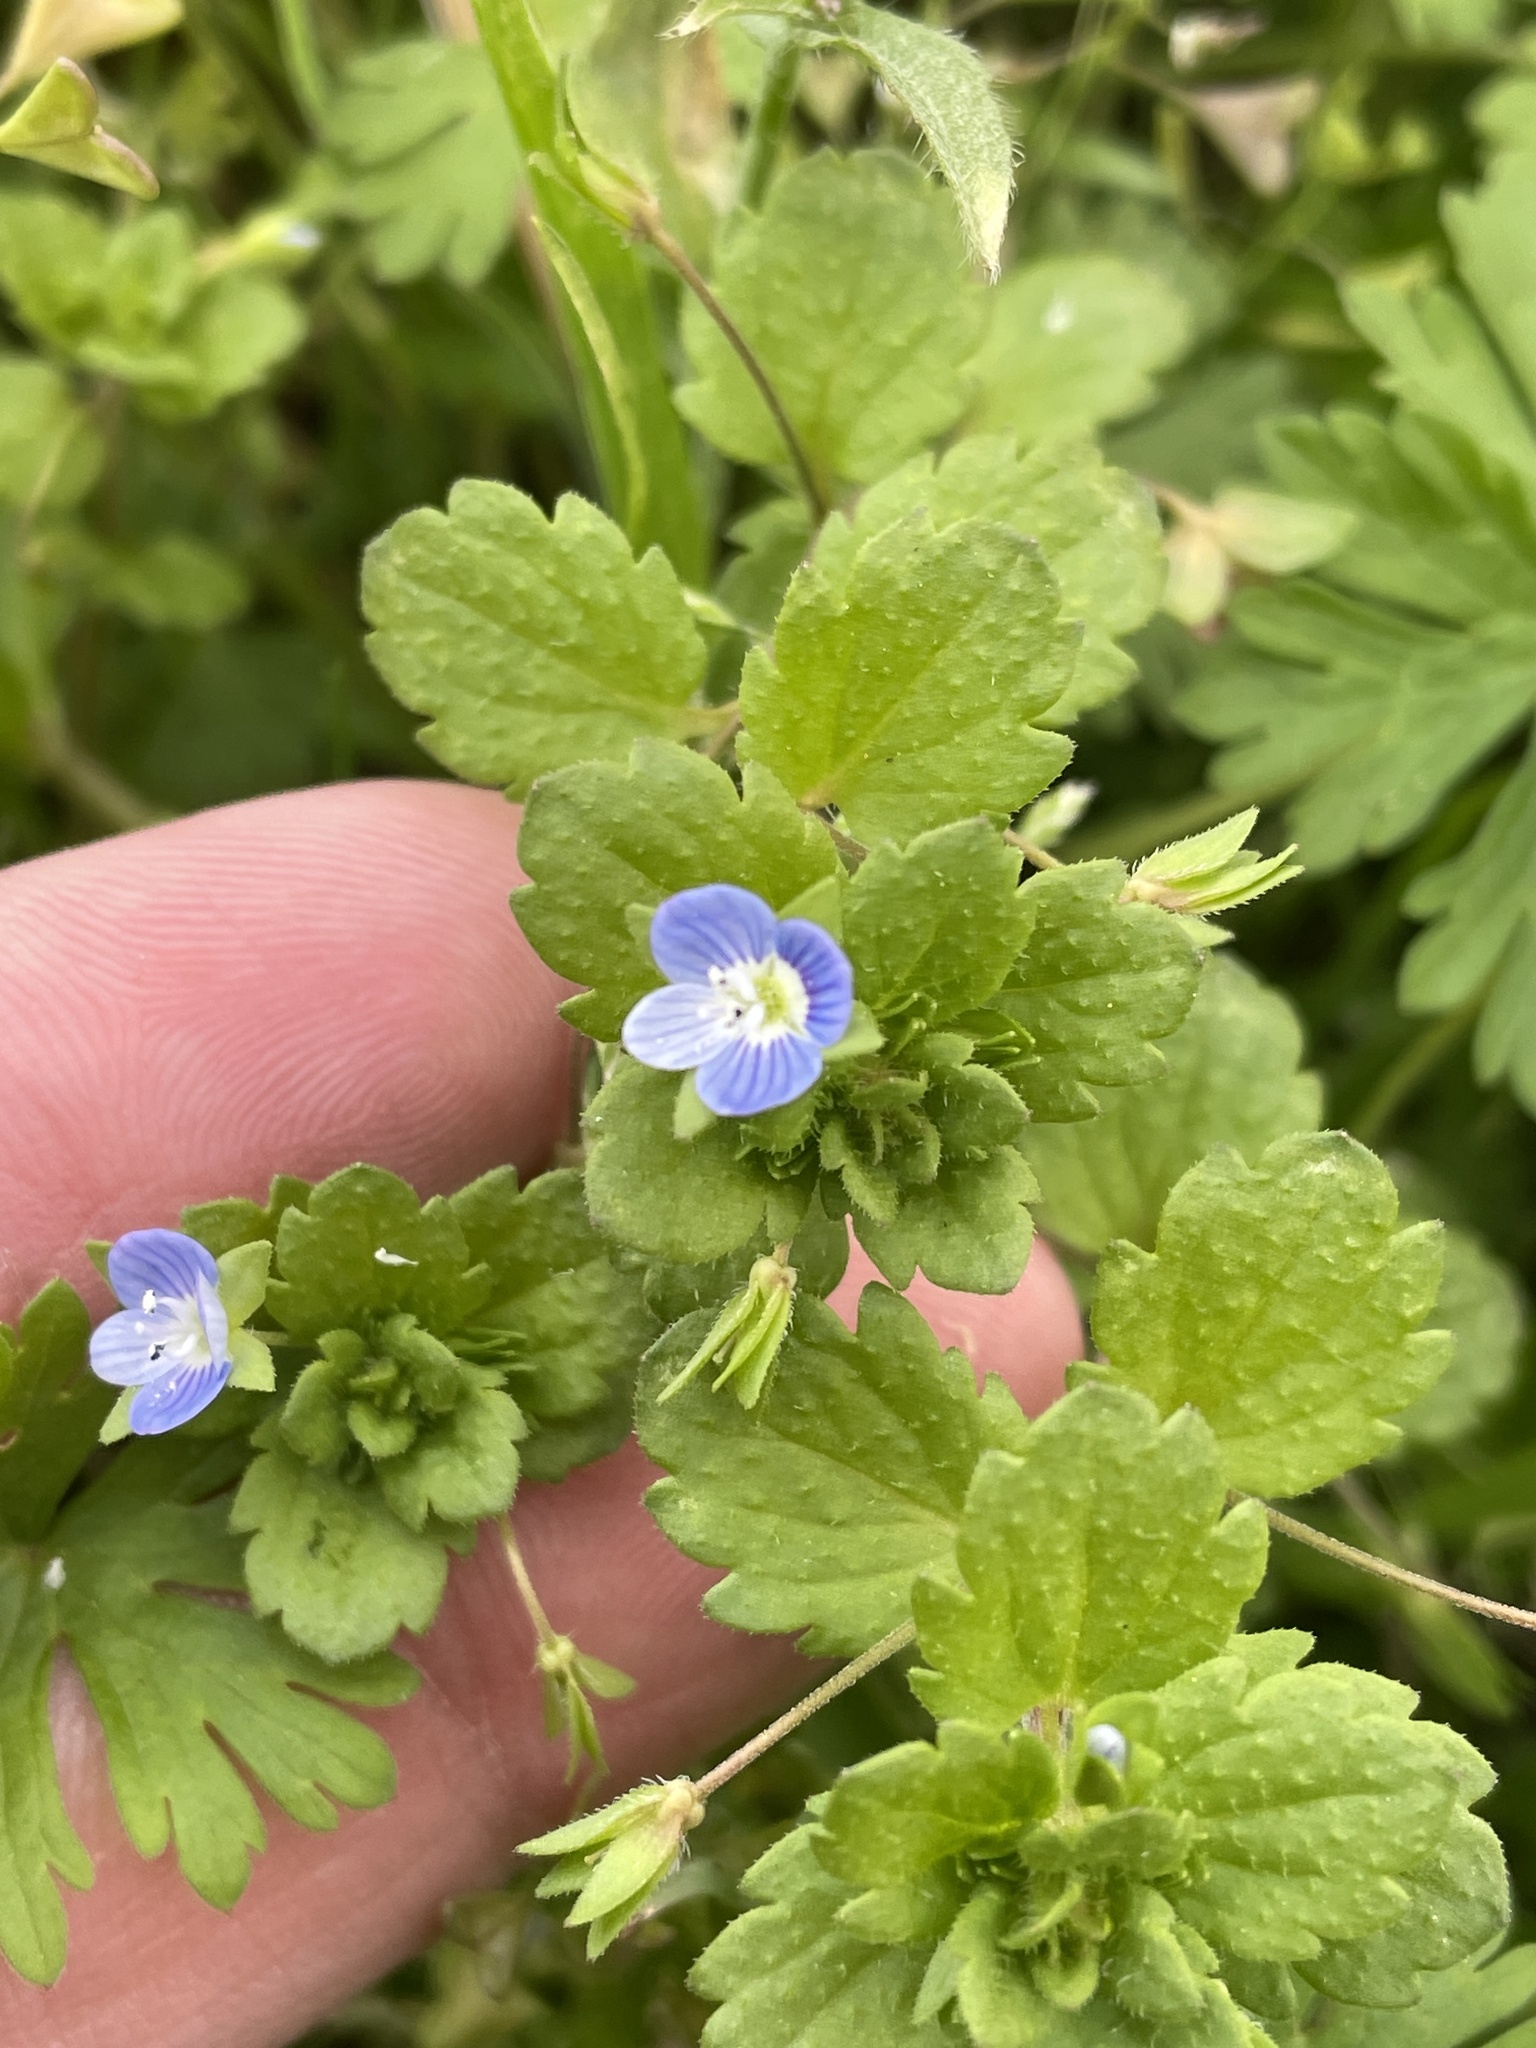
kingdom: Plantae
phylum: Tracheophyta
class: Magnoliopsida
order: Lamiales
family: Plantaginaceae
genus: Veronica
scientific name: Veronica persica
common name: Common field-speedwell
